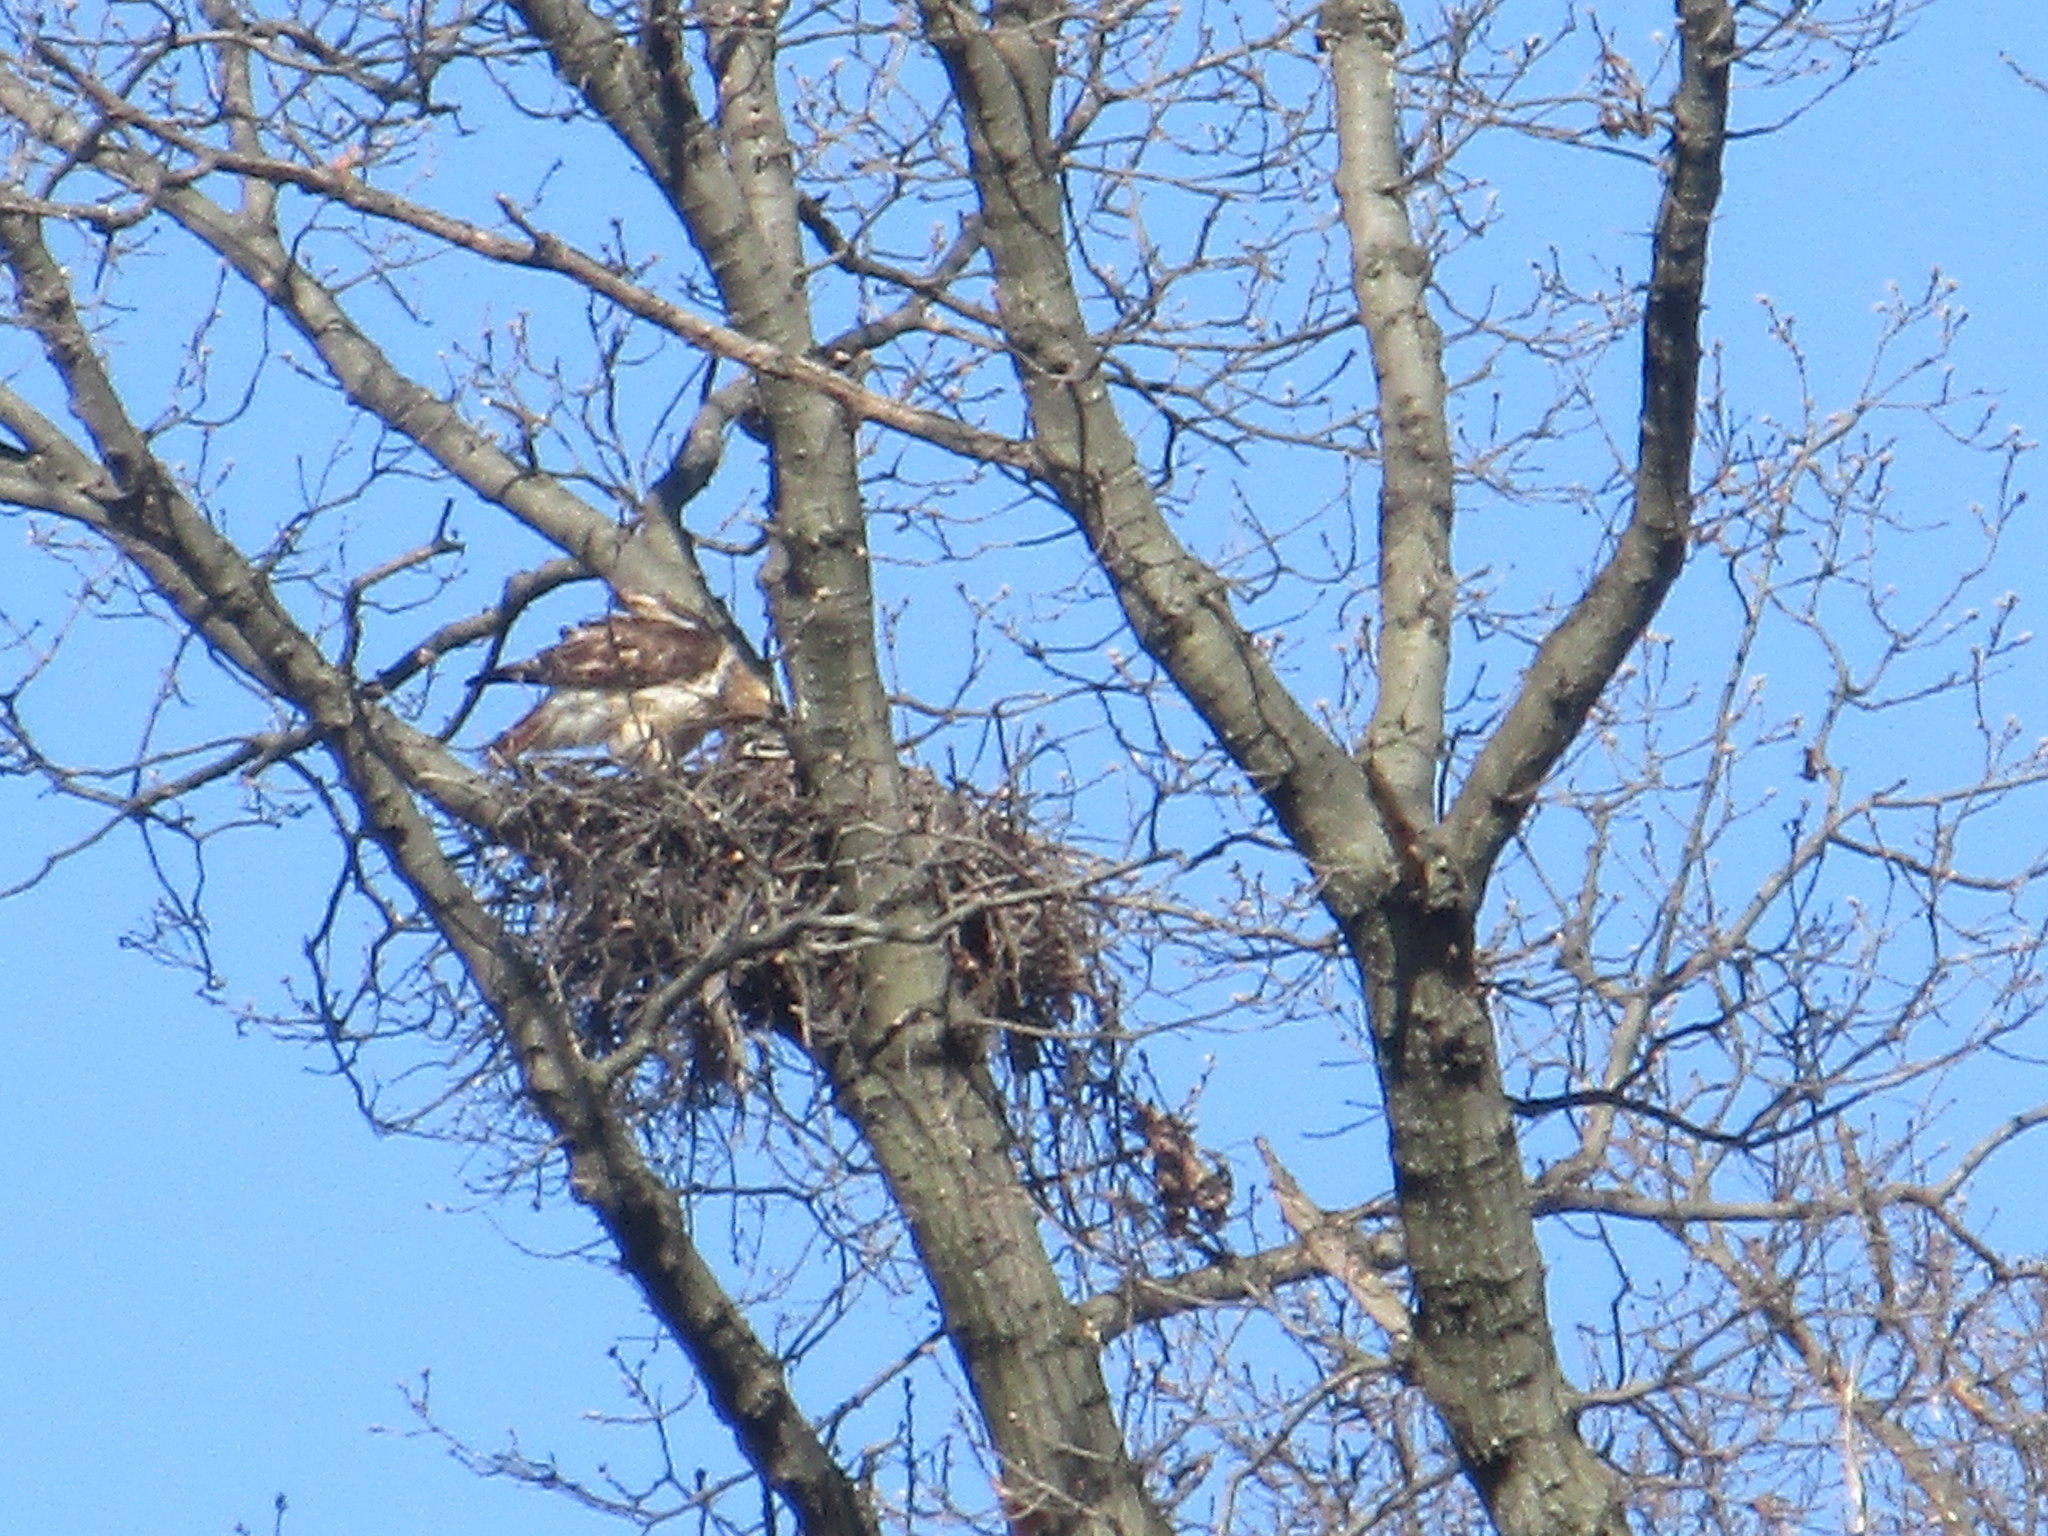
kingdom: Animalia
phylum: Chordata
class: Aves
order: Accipitriformes
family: Accipitridae
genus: Buteo
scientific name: Buteo jamaicensis
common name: Red-tailed hawk
